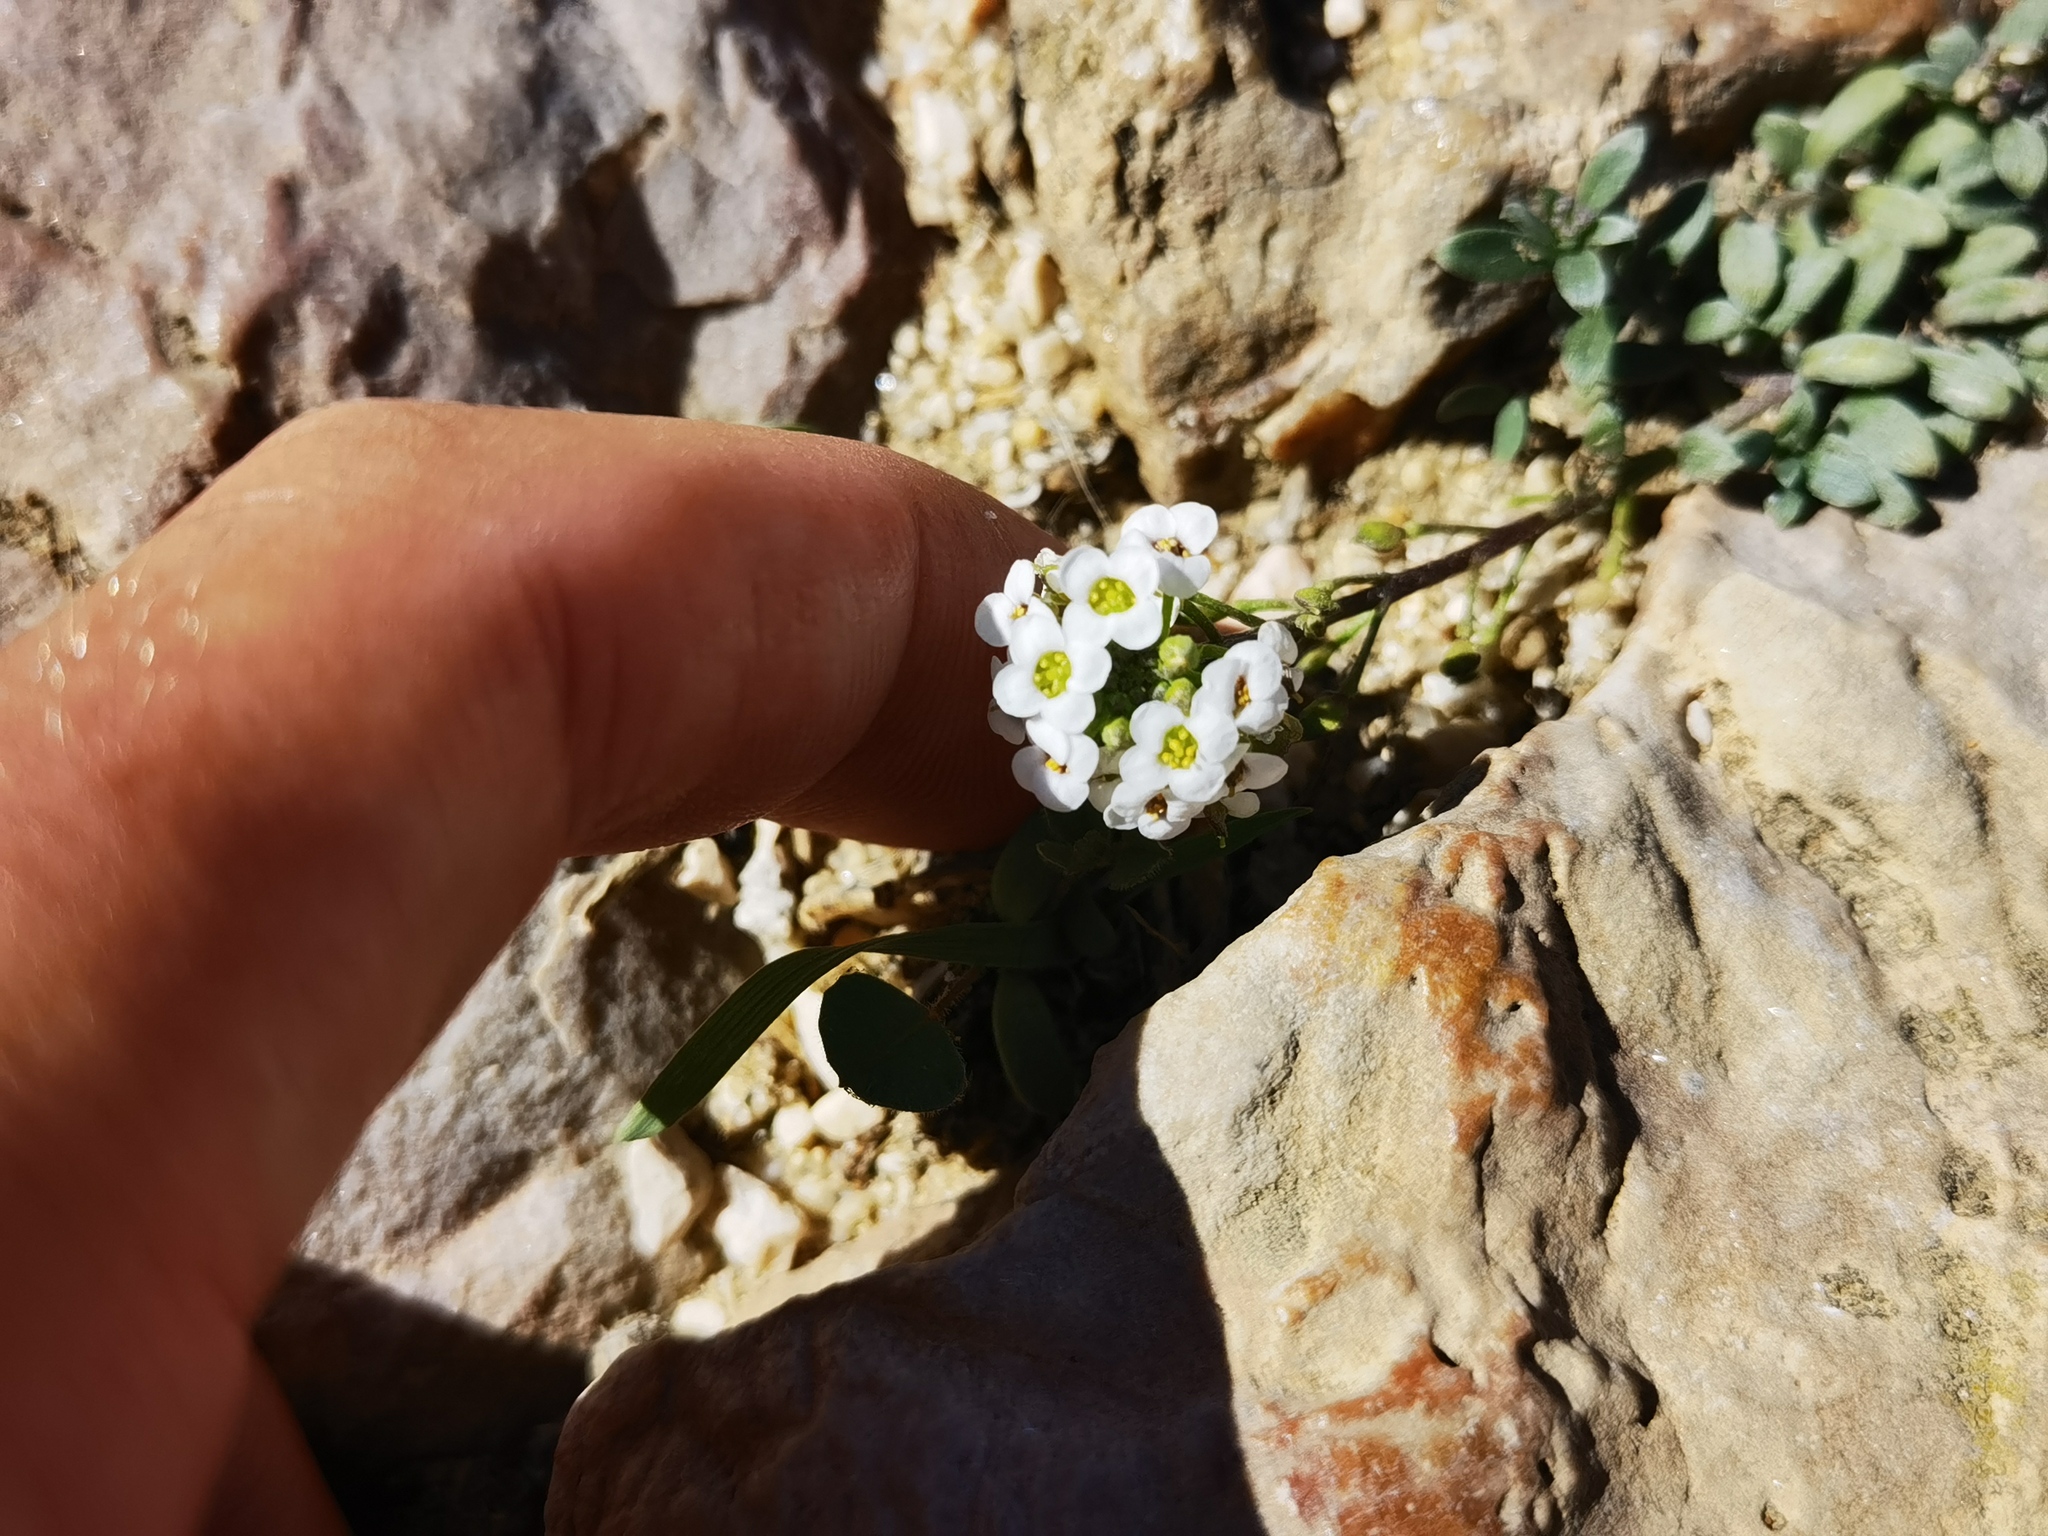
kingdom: Plantae
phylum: Tracheophyta
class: Magnoliopsida
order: Brassicales
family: Brassicaceae
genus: Lobularia
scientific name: Lobularia maritima
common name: Sweet alison
